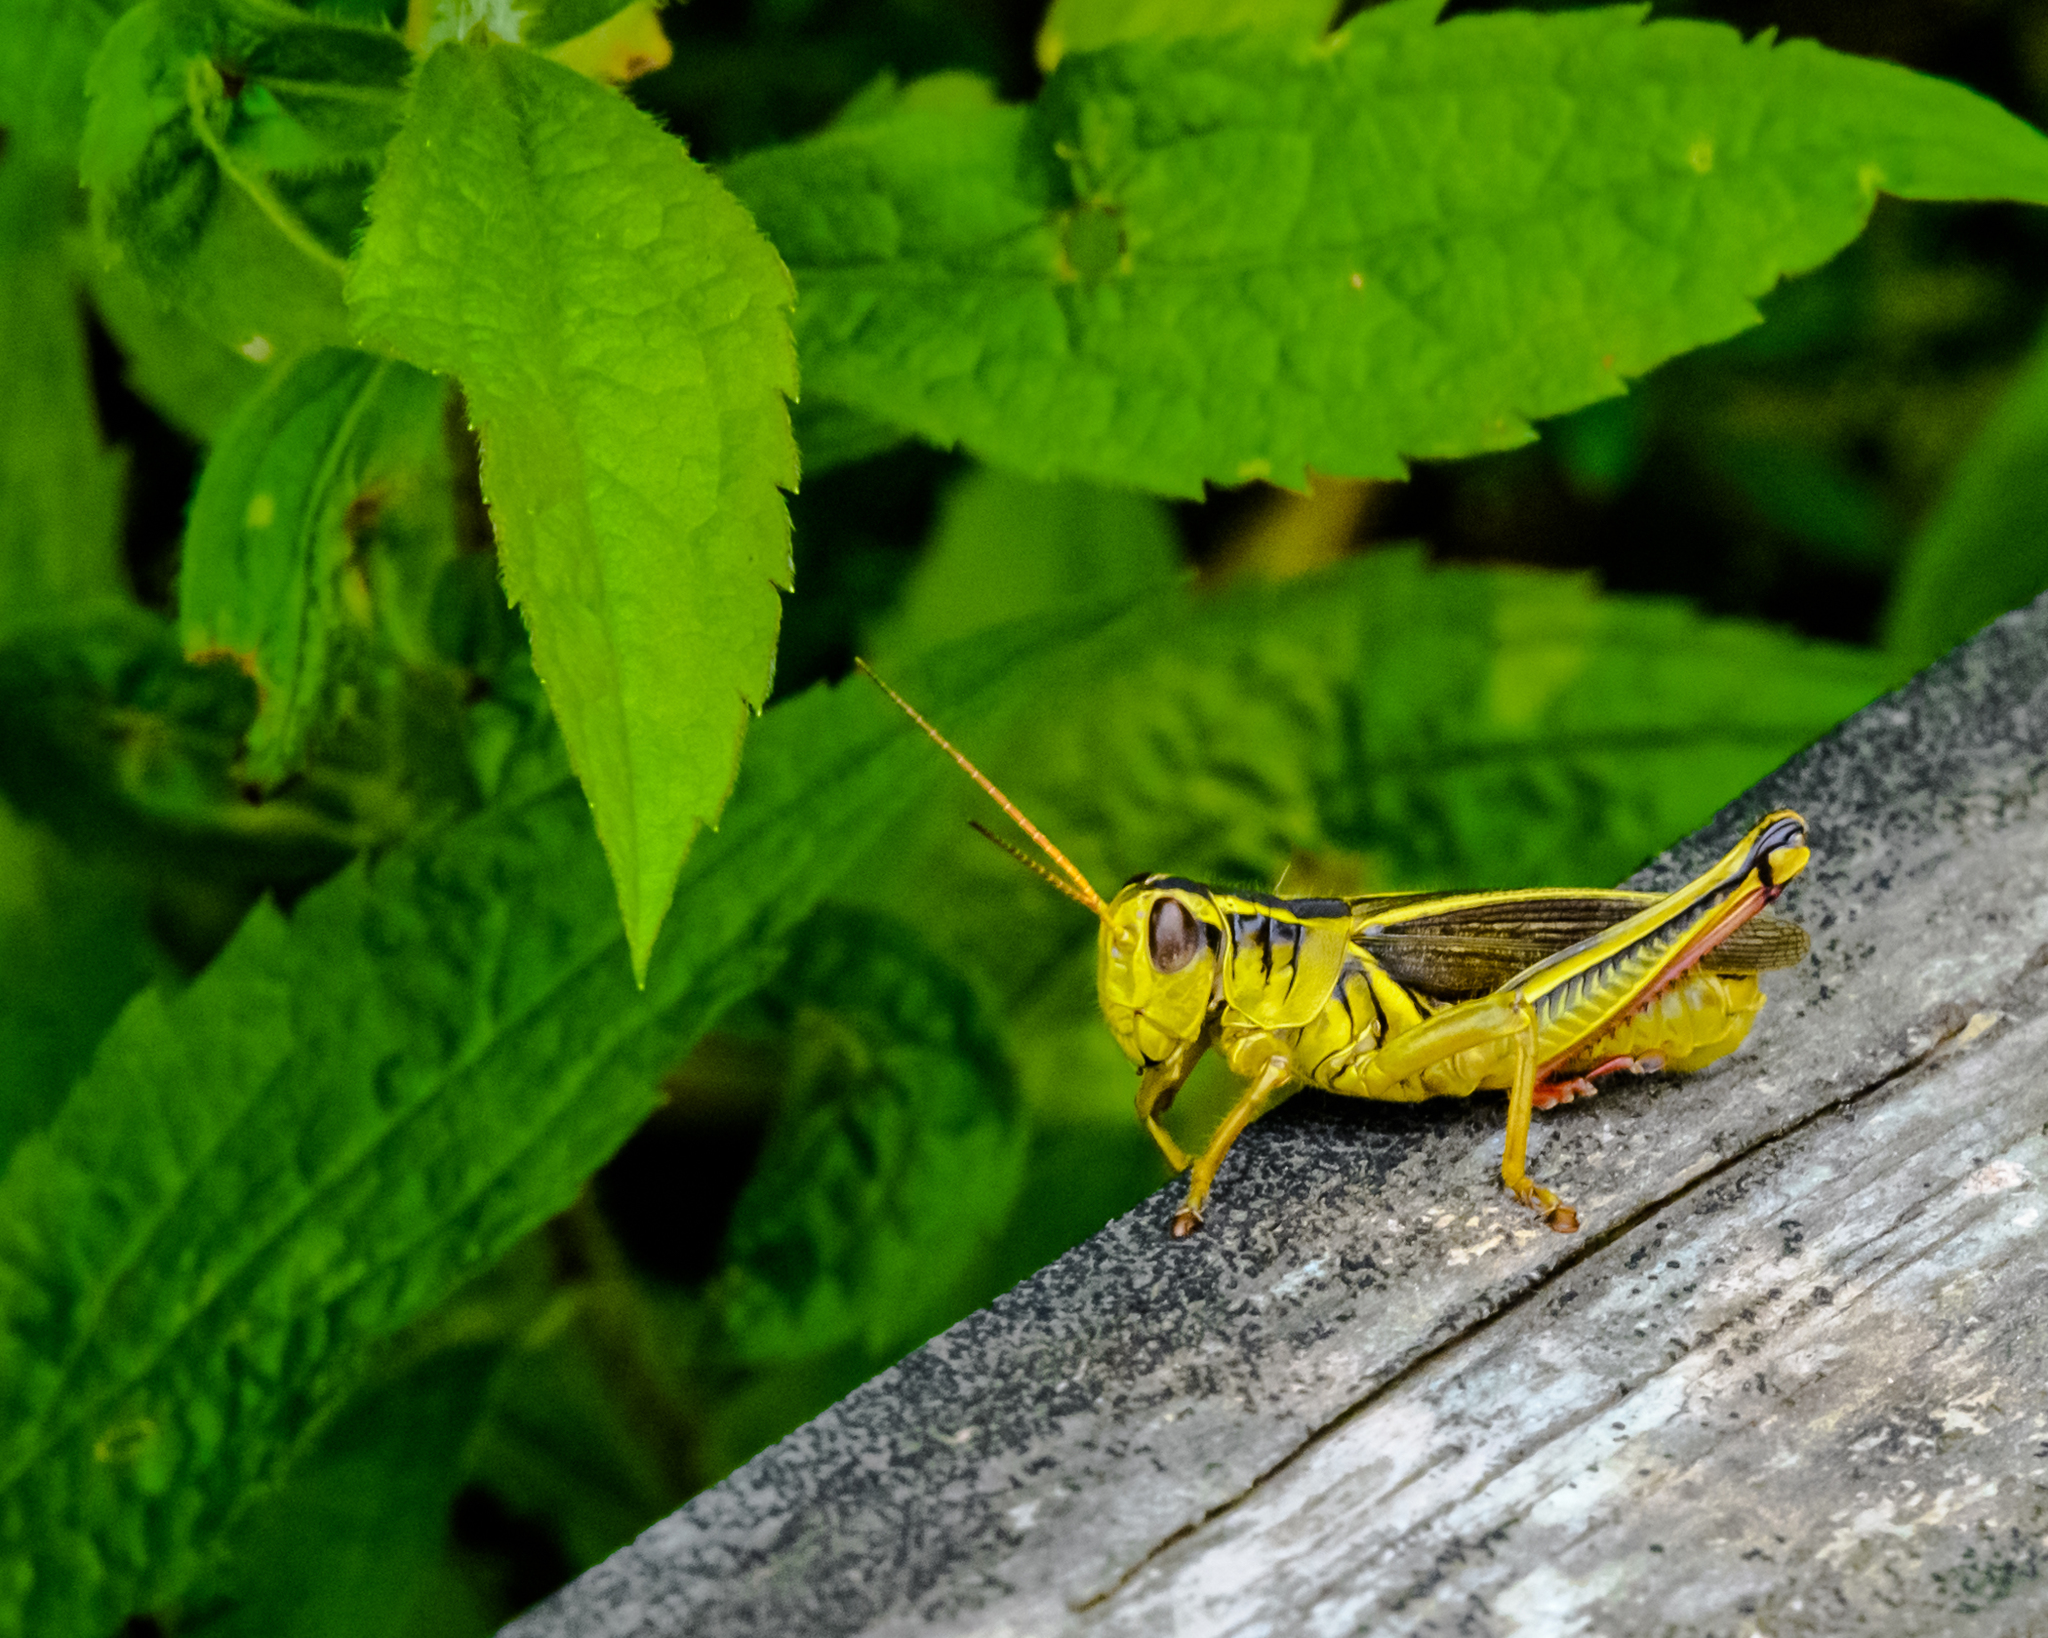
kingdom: Animalia
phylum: Arthropoda
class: Insecta
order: Orthoptera
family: Acrididae
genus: Melanoplus
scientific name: Melanoplus bivittatus
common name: Two-striped grasshopper
